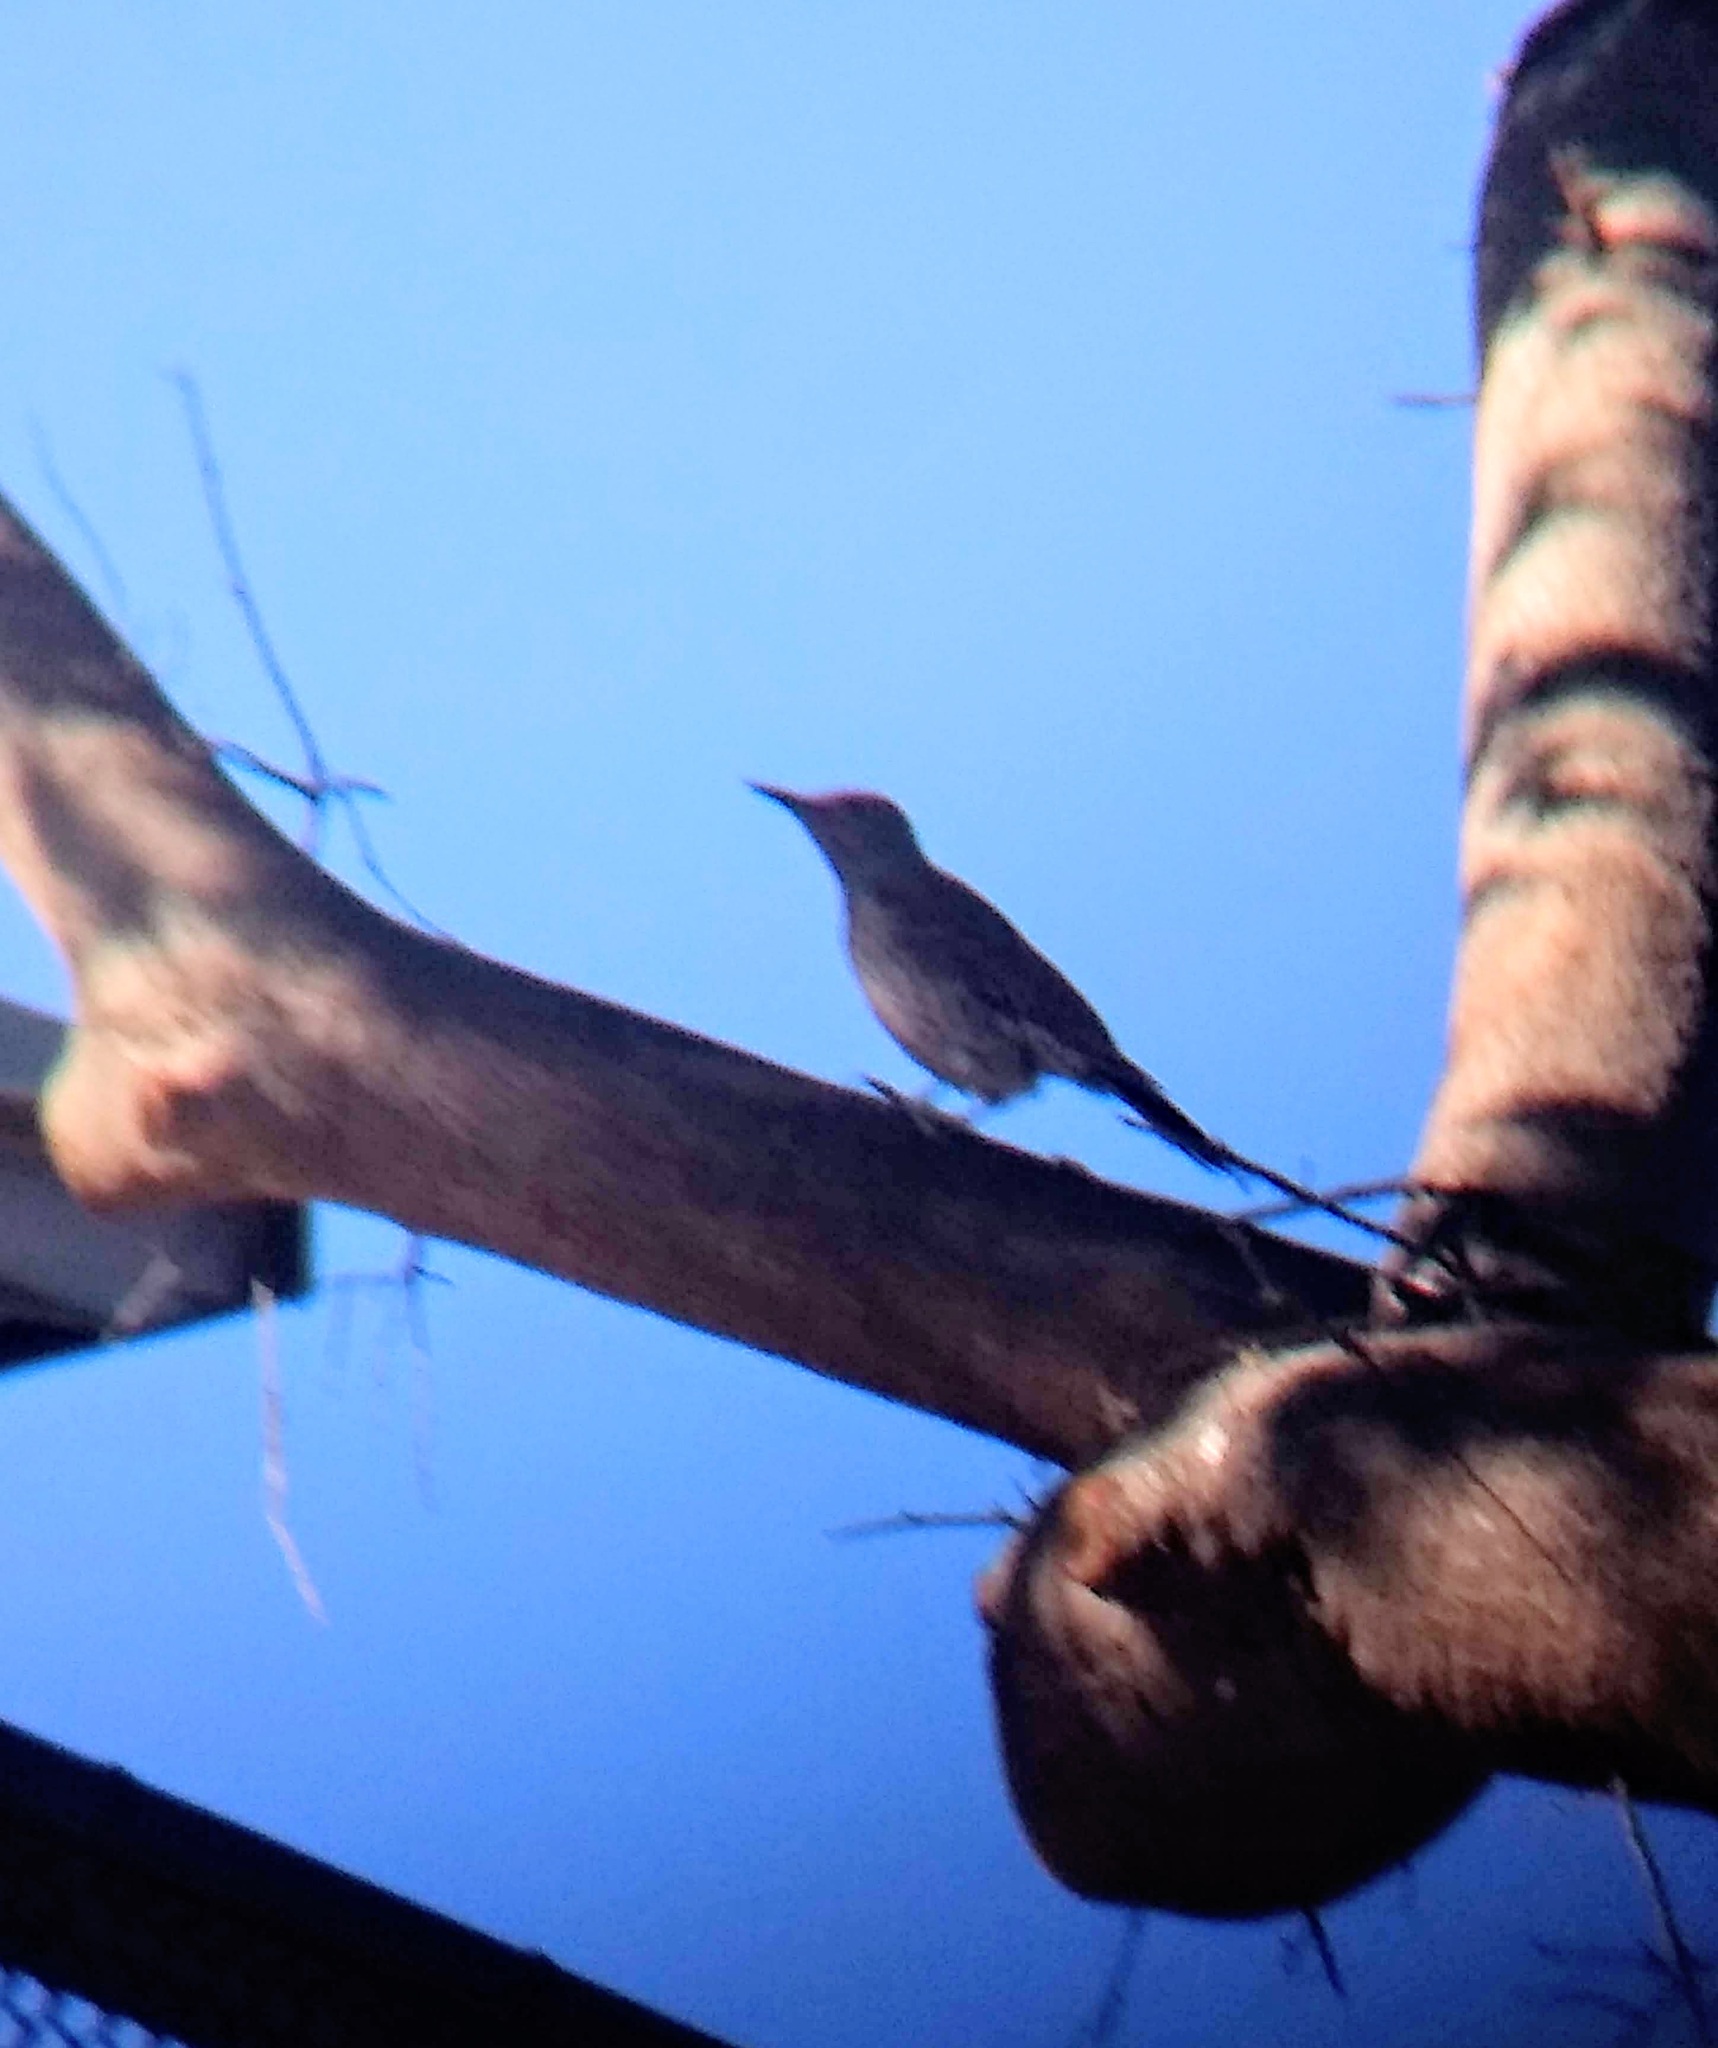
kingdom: Animalia
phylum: Chordata
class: Aves
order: Piciformes
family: Picidae
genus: Colaptes
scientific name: Colaptes auratus
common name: Northern flicker
